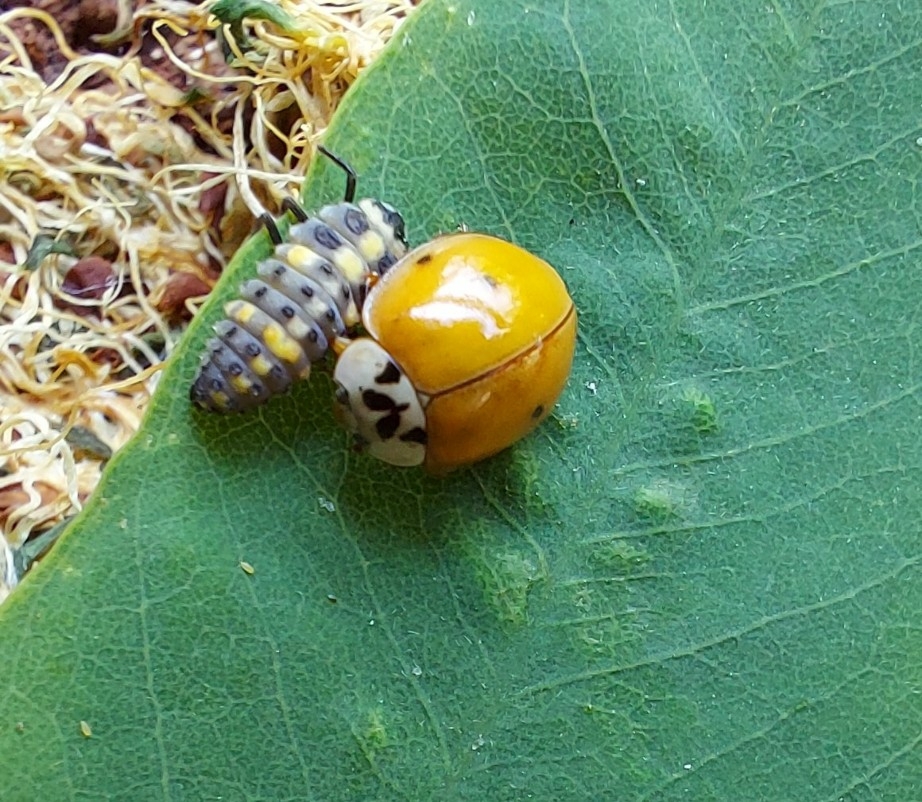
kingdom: Animalia
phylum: Arthropoda
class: Insecta
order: Coleoptera
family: Coccinellidae
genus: Harmonia
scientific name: Harmonia axyridis
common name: Harlequin ladybird
